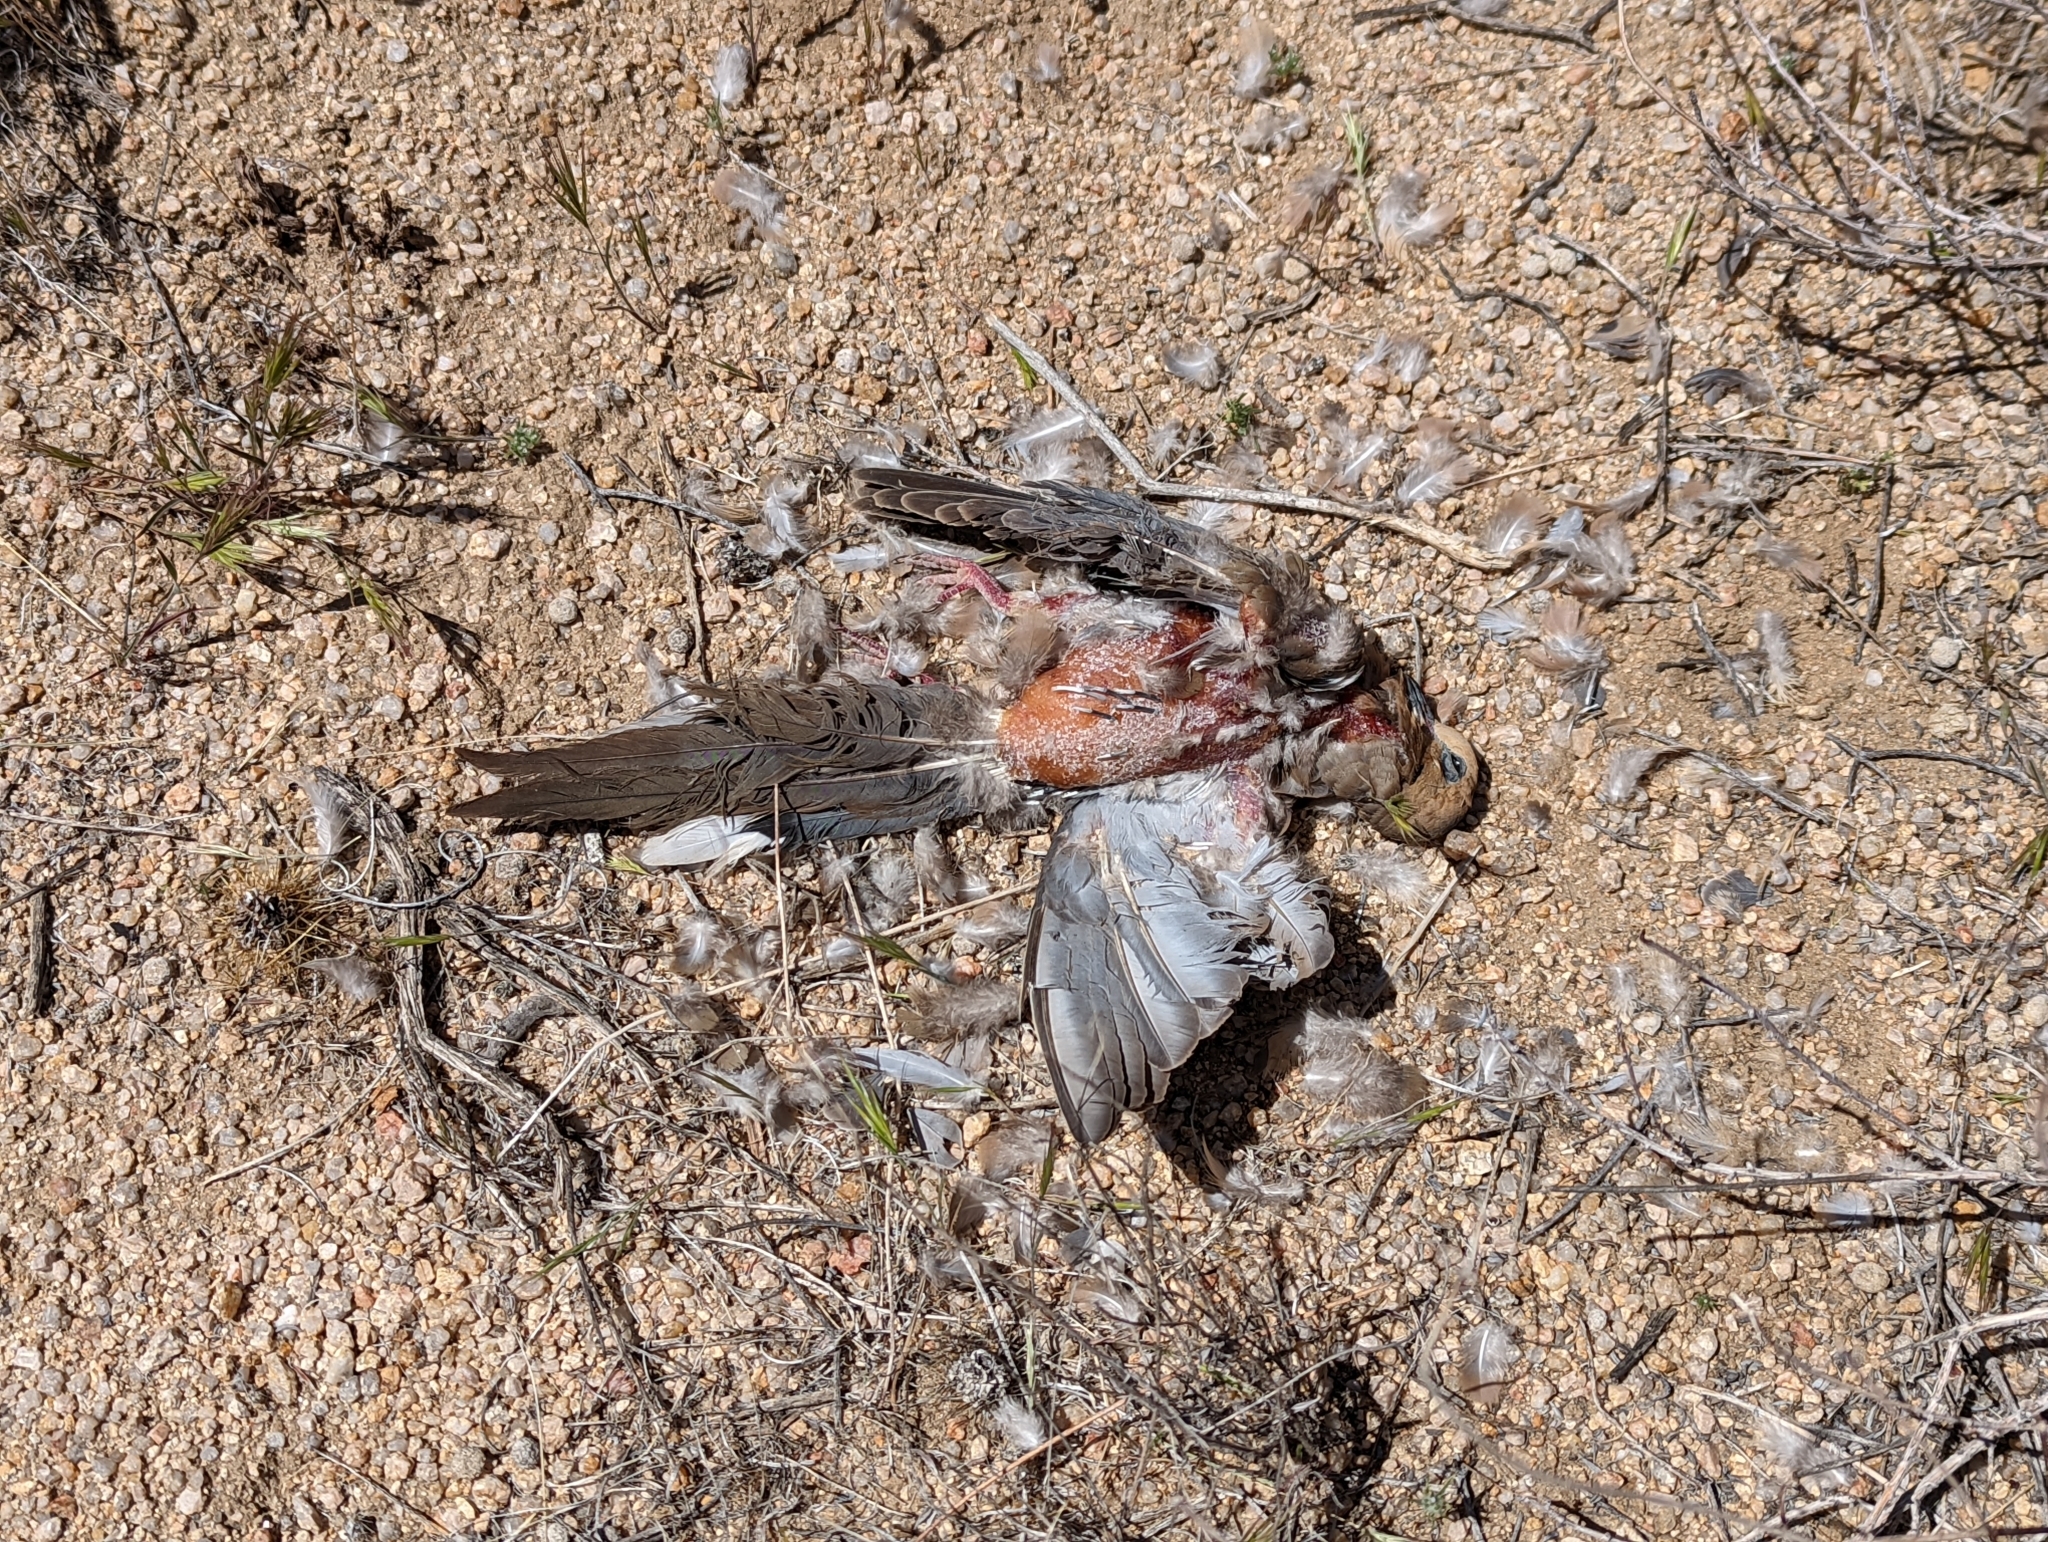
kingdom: Animalia
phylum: Chordata
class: Aves
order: Columbiformes
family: Columbidae
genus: Zenaida
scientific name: Zenaida macroura
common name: Mourning dove
